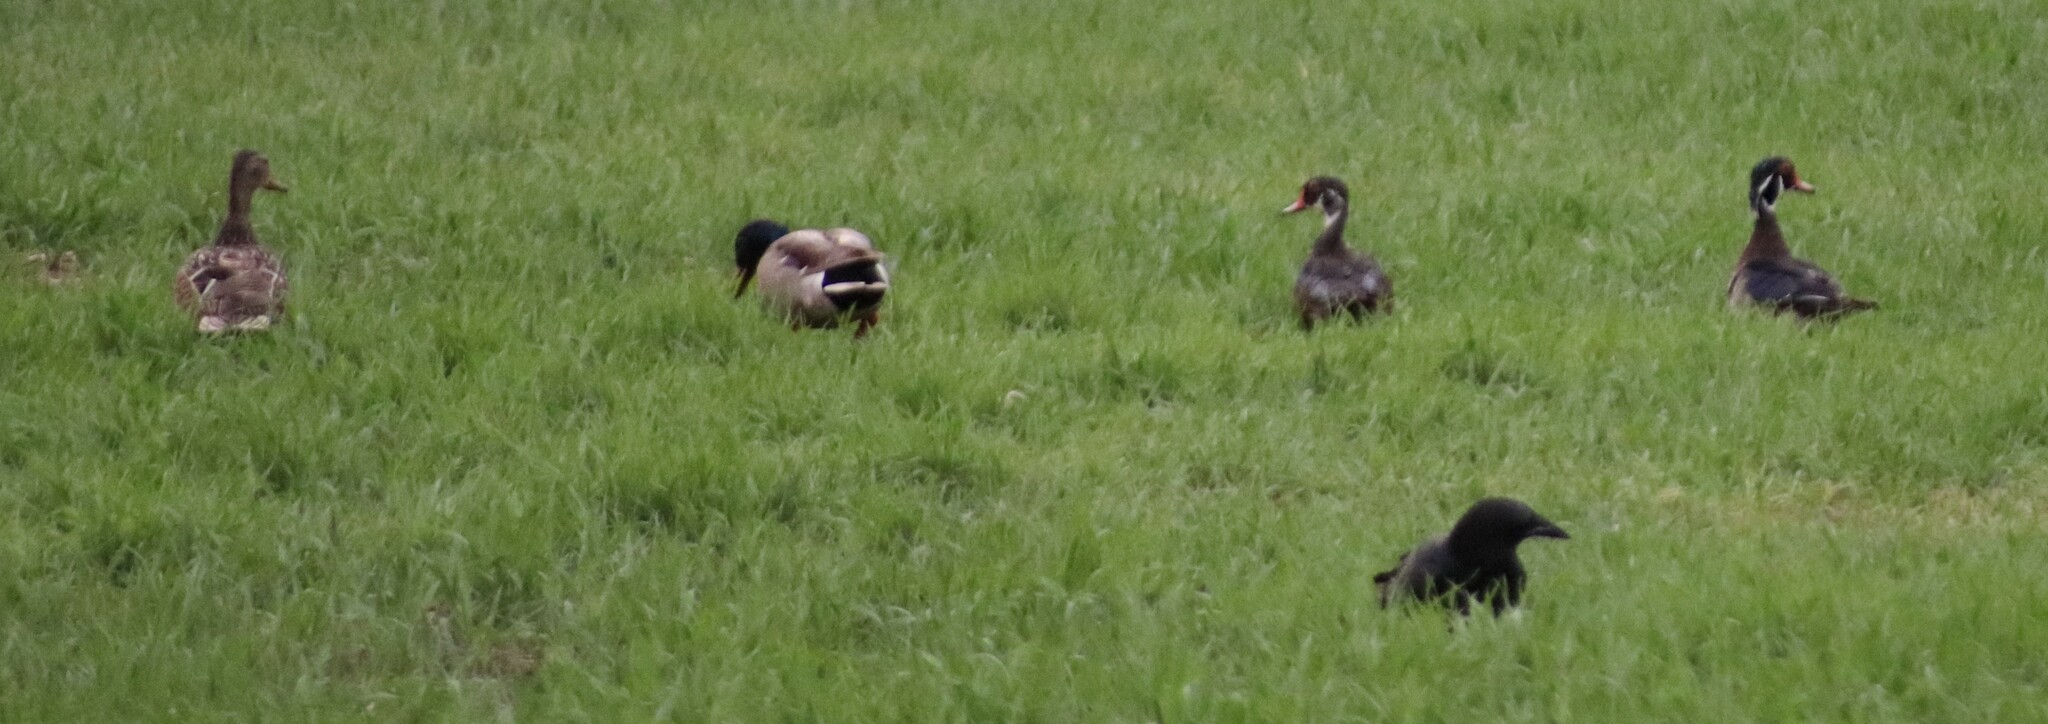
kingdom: Animalia
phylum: Chordata
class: Aves
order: Anseriformes
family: Anatidae
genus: Aix
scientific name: Aix sponsa
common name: Wood duck
